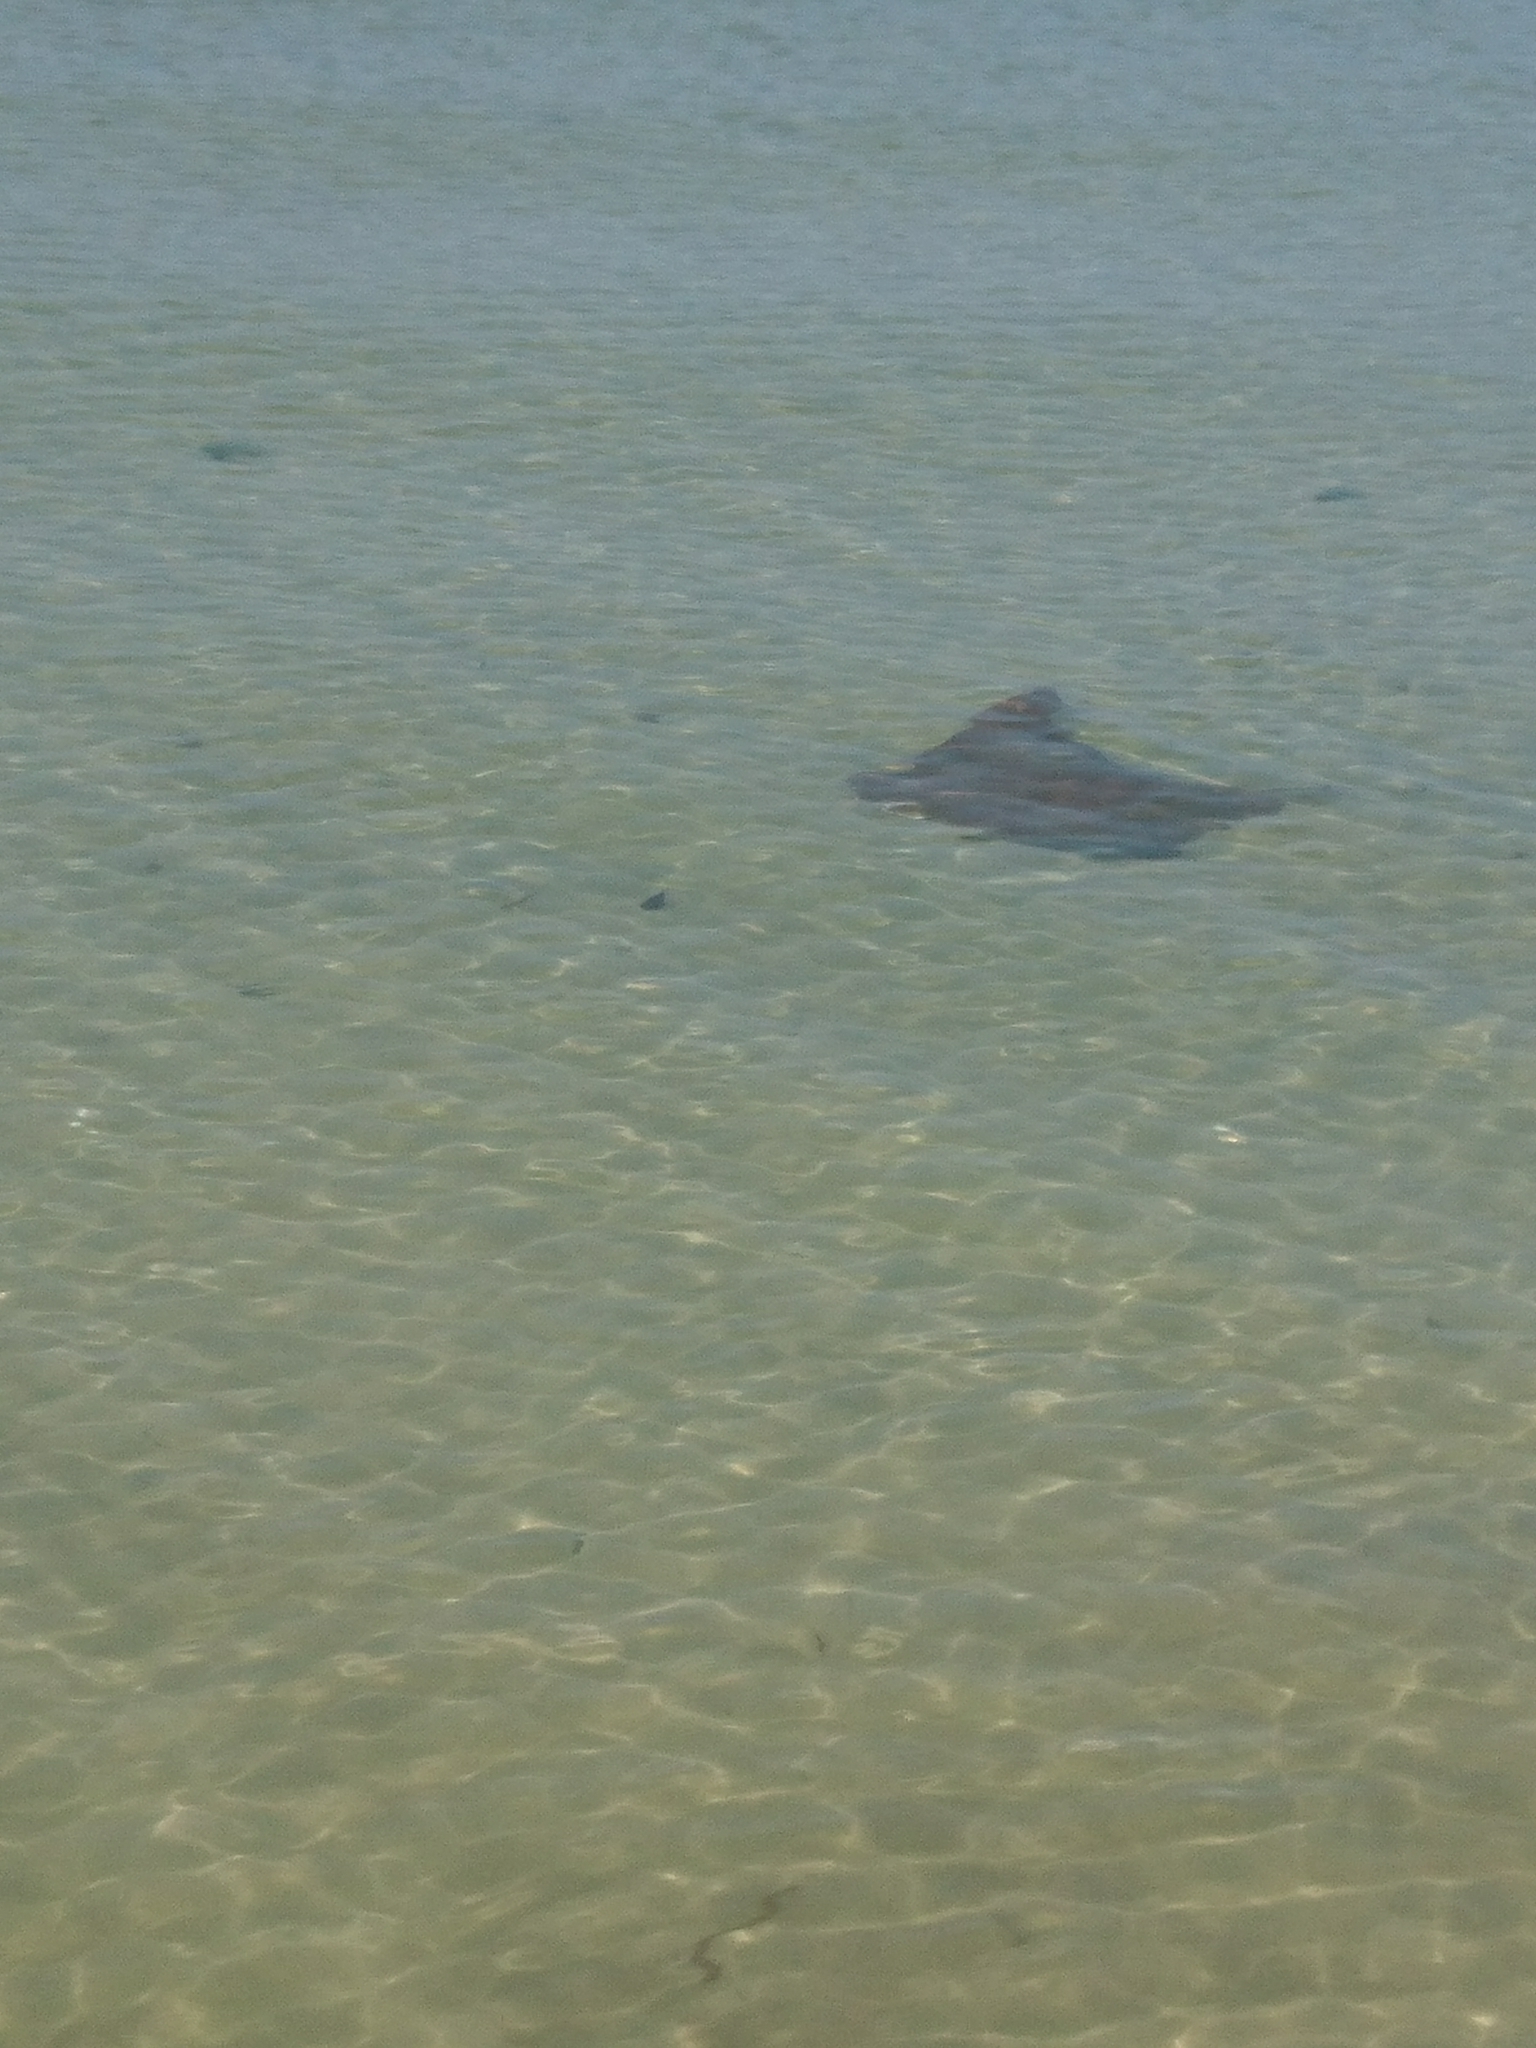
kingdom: Animalia
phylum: Chordata
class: Elasmobranchii
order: Myliobatiformes
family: Myliobatidae
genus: Rhinoptera
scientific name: Rhinoptera bonasus
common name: Cownose ray
